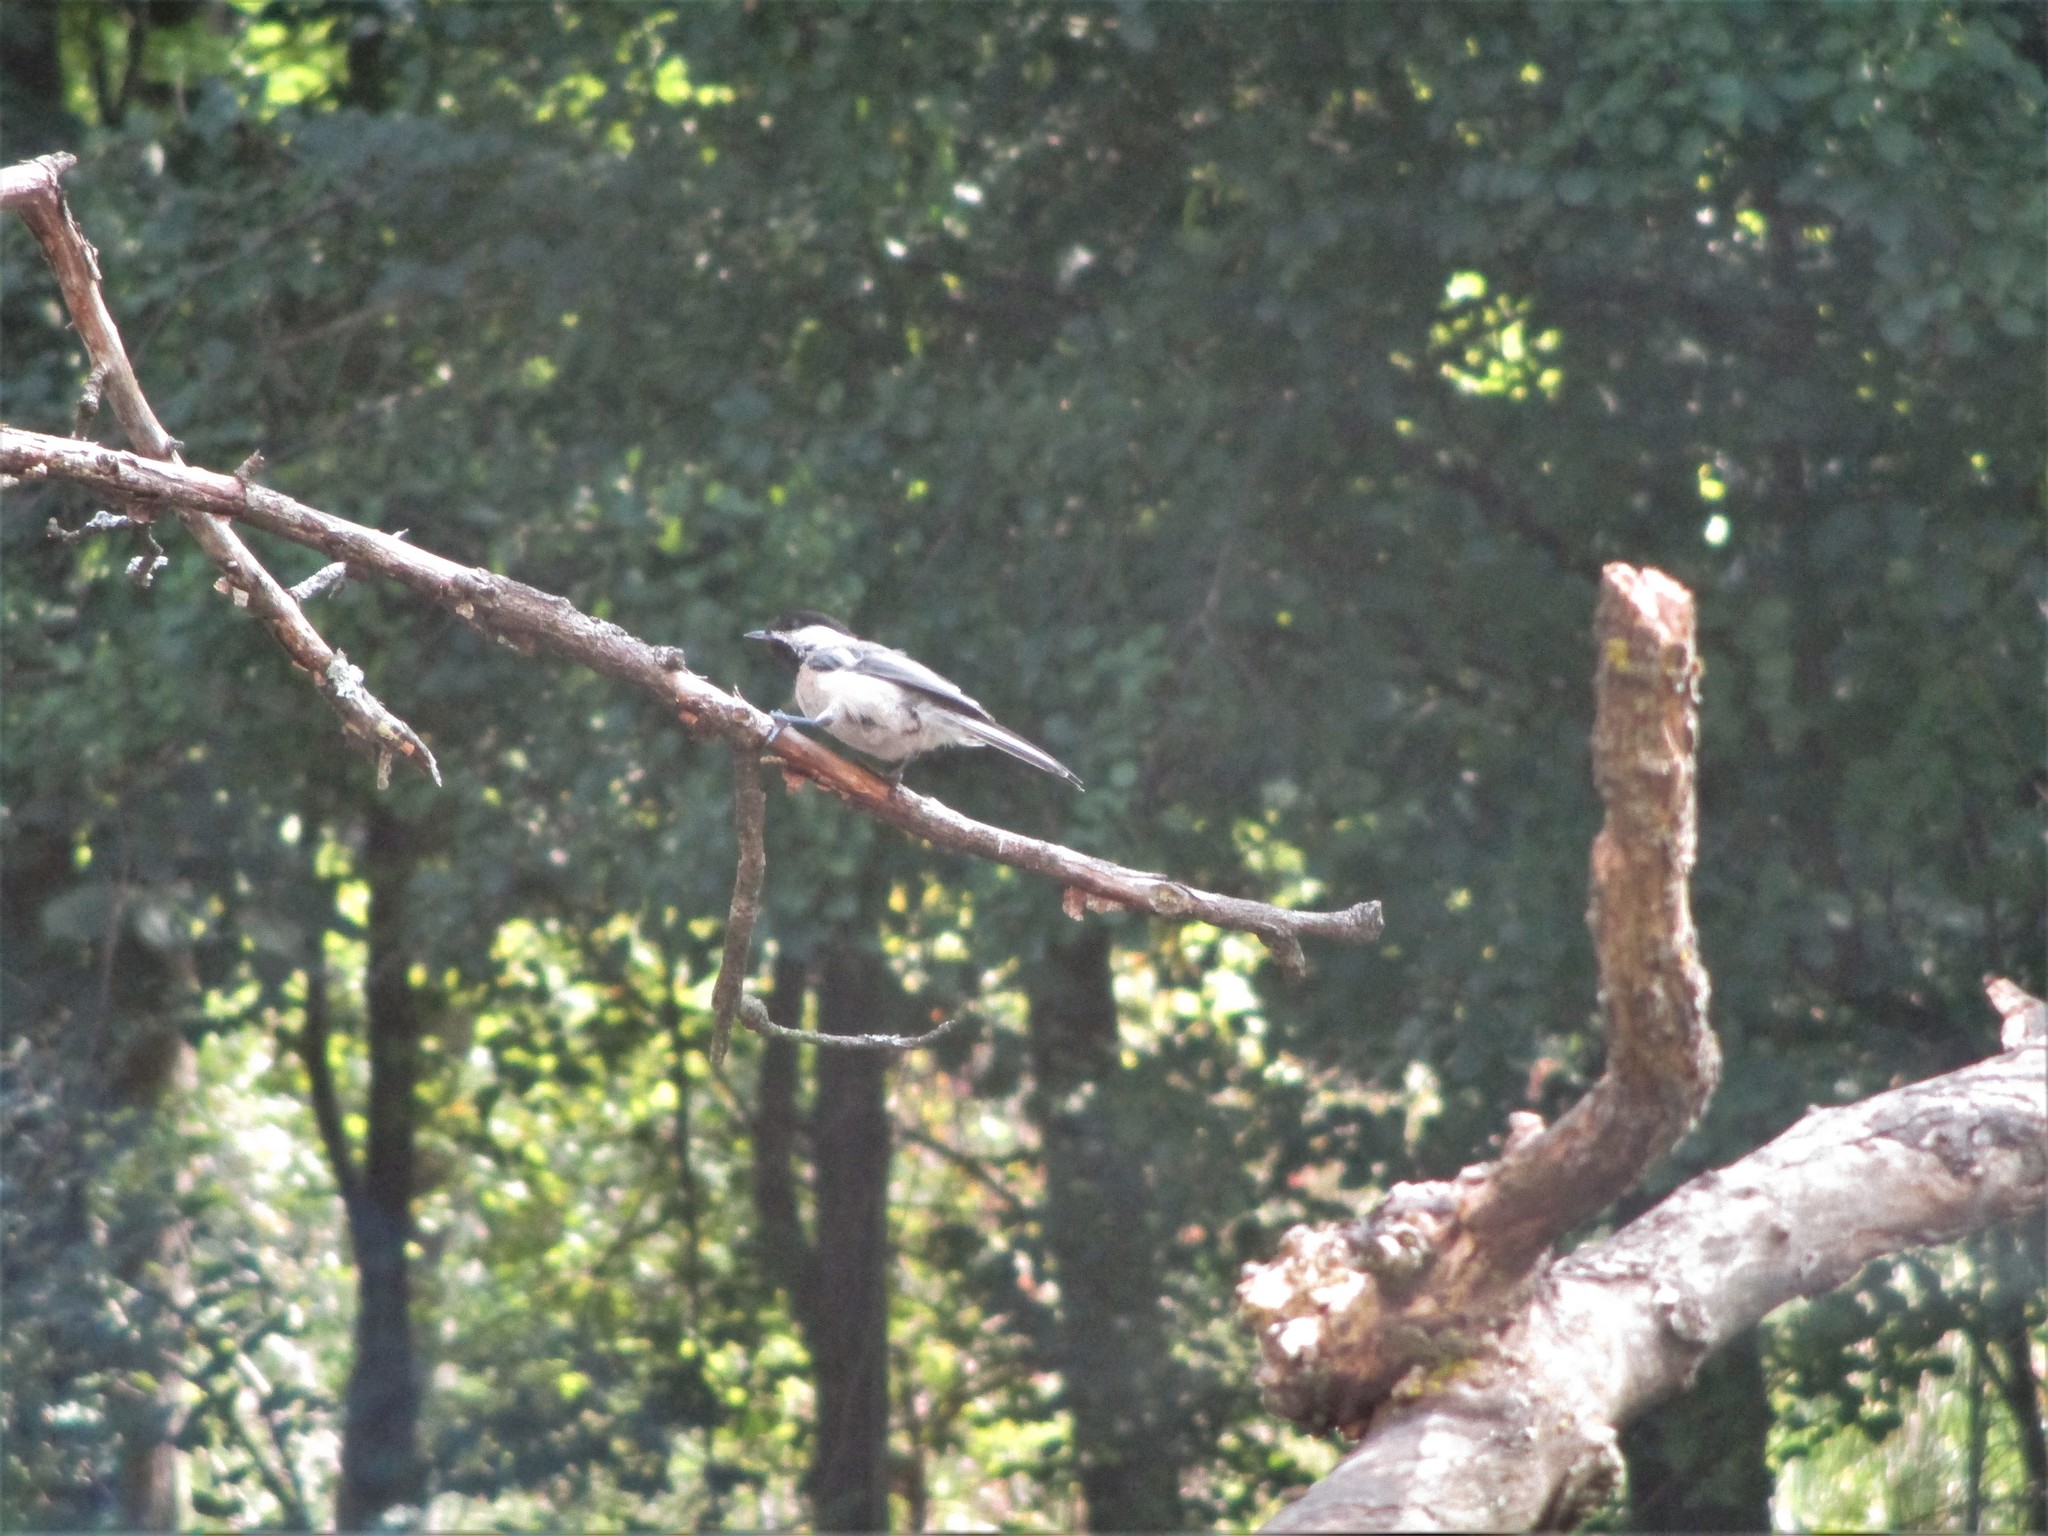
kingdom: Animalia
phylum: Chordata
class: Aves
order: Passeriformes
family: Paridae
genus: Poecile
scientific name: Poecile atricapillus
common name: Black-capped chickadee
